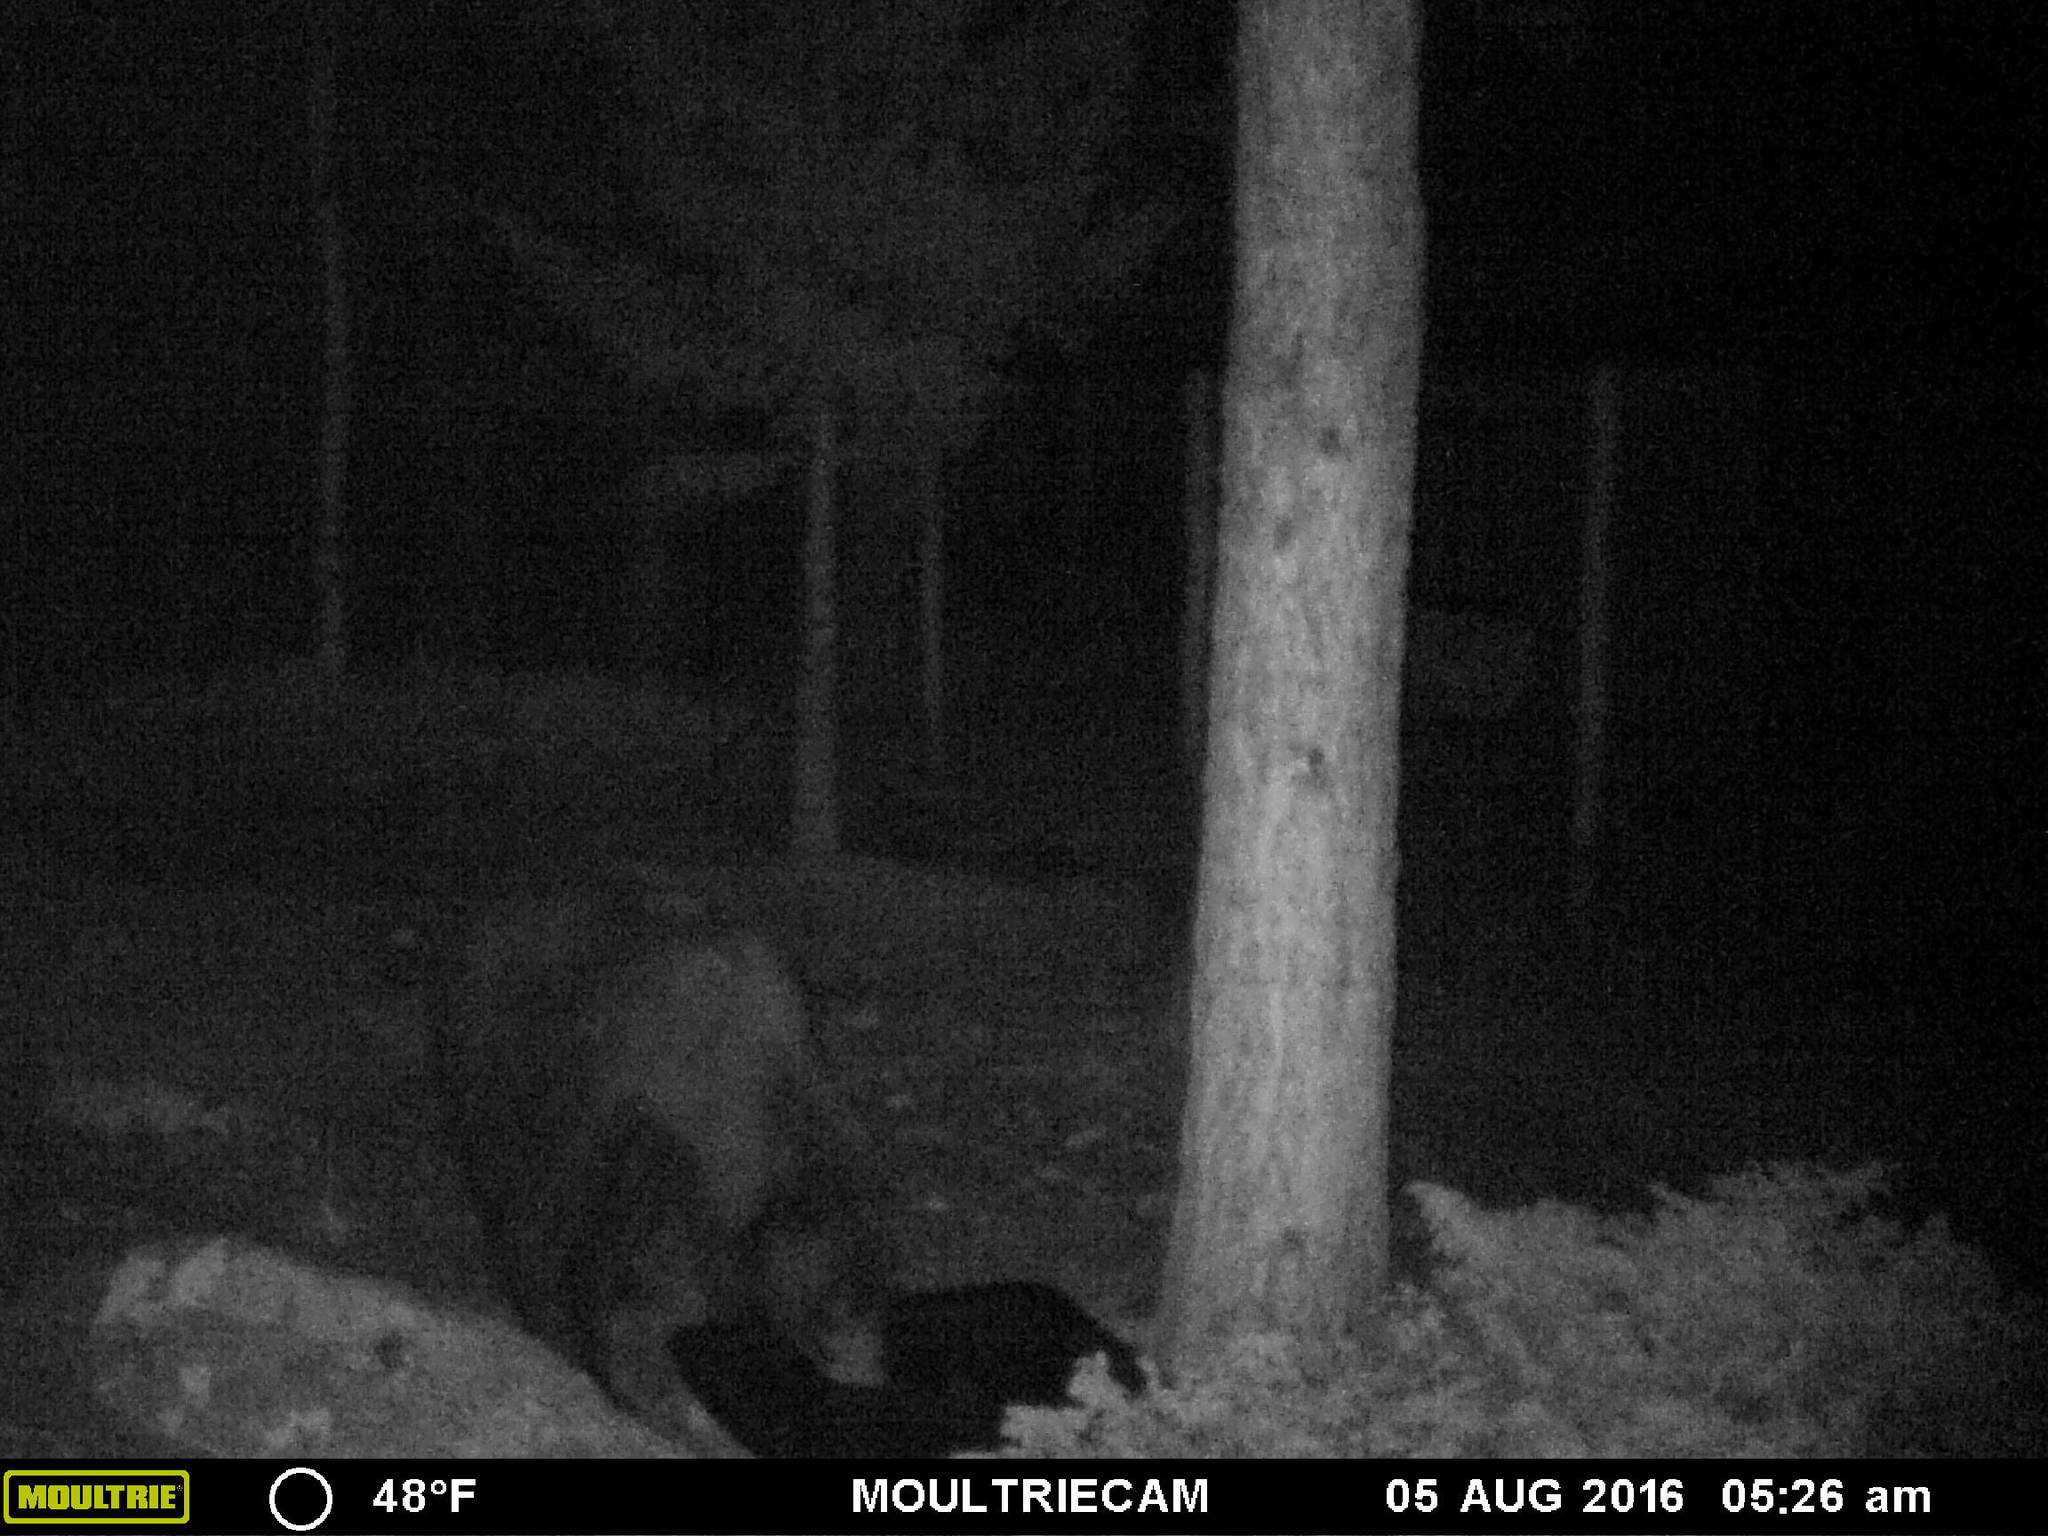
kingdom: Animalia
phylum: Chordata
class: Mammalia
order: Carnivora
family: Ursidae
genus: Ursus
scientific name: Ursus americanus
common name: American black bear
